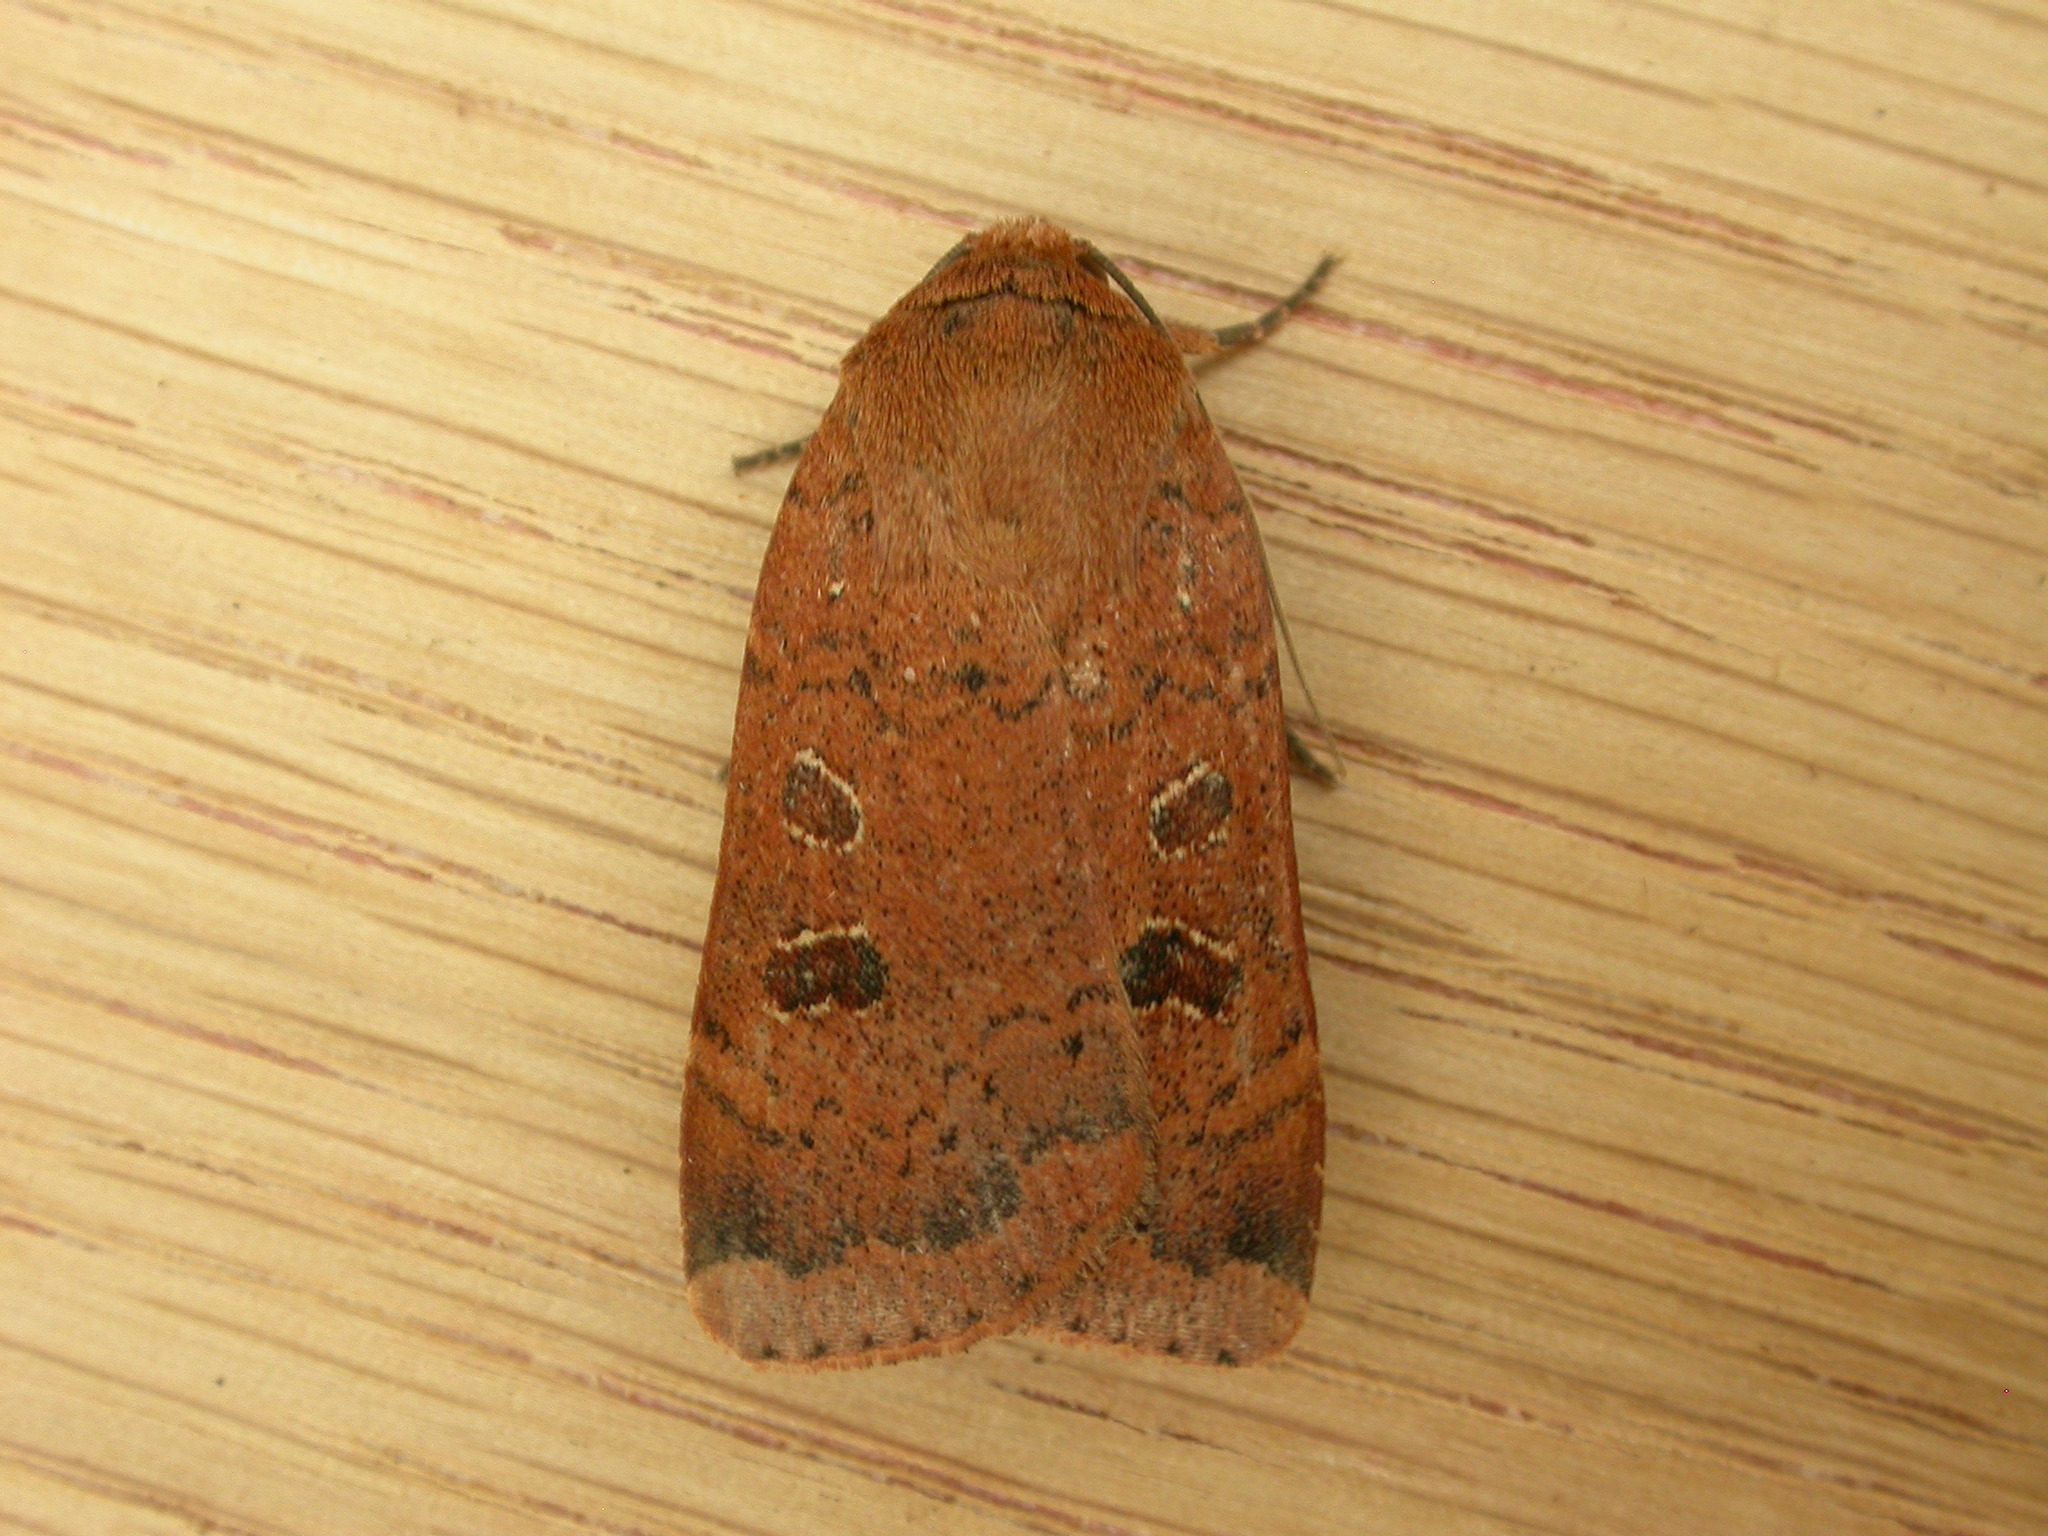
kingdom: Animalia
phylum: Arthropoda
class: Insecta
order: Lepidoptera
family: Noctuidae
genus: Noctua
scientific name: Noctua comes
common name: Lesser yellow underwing
